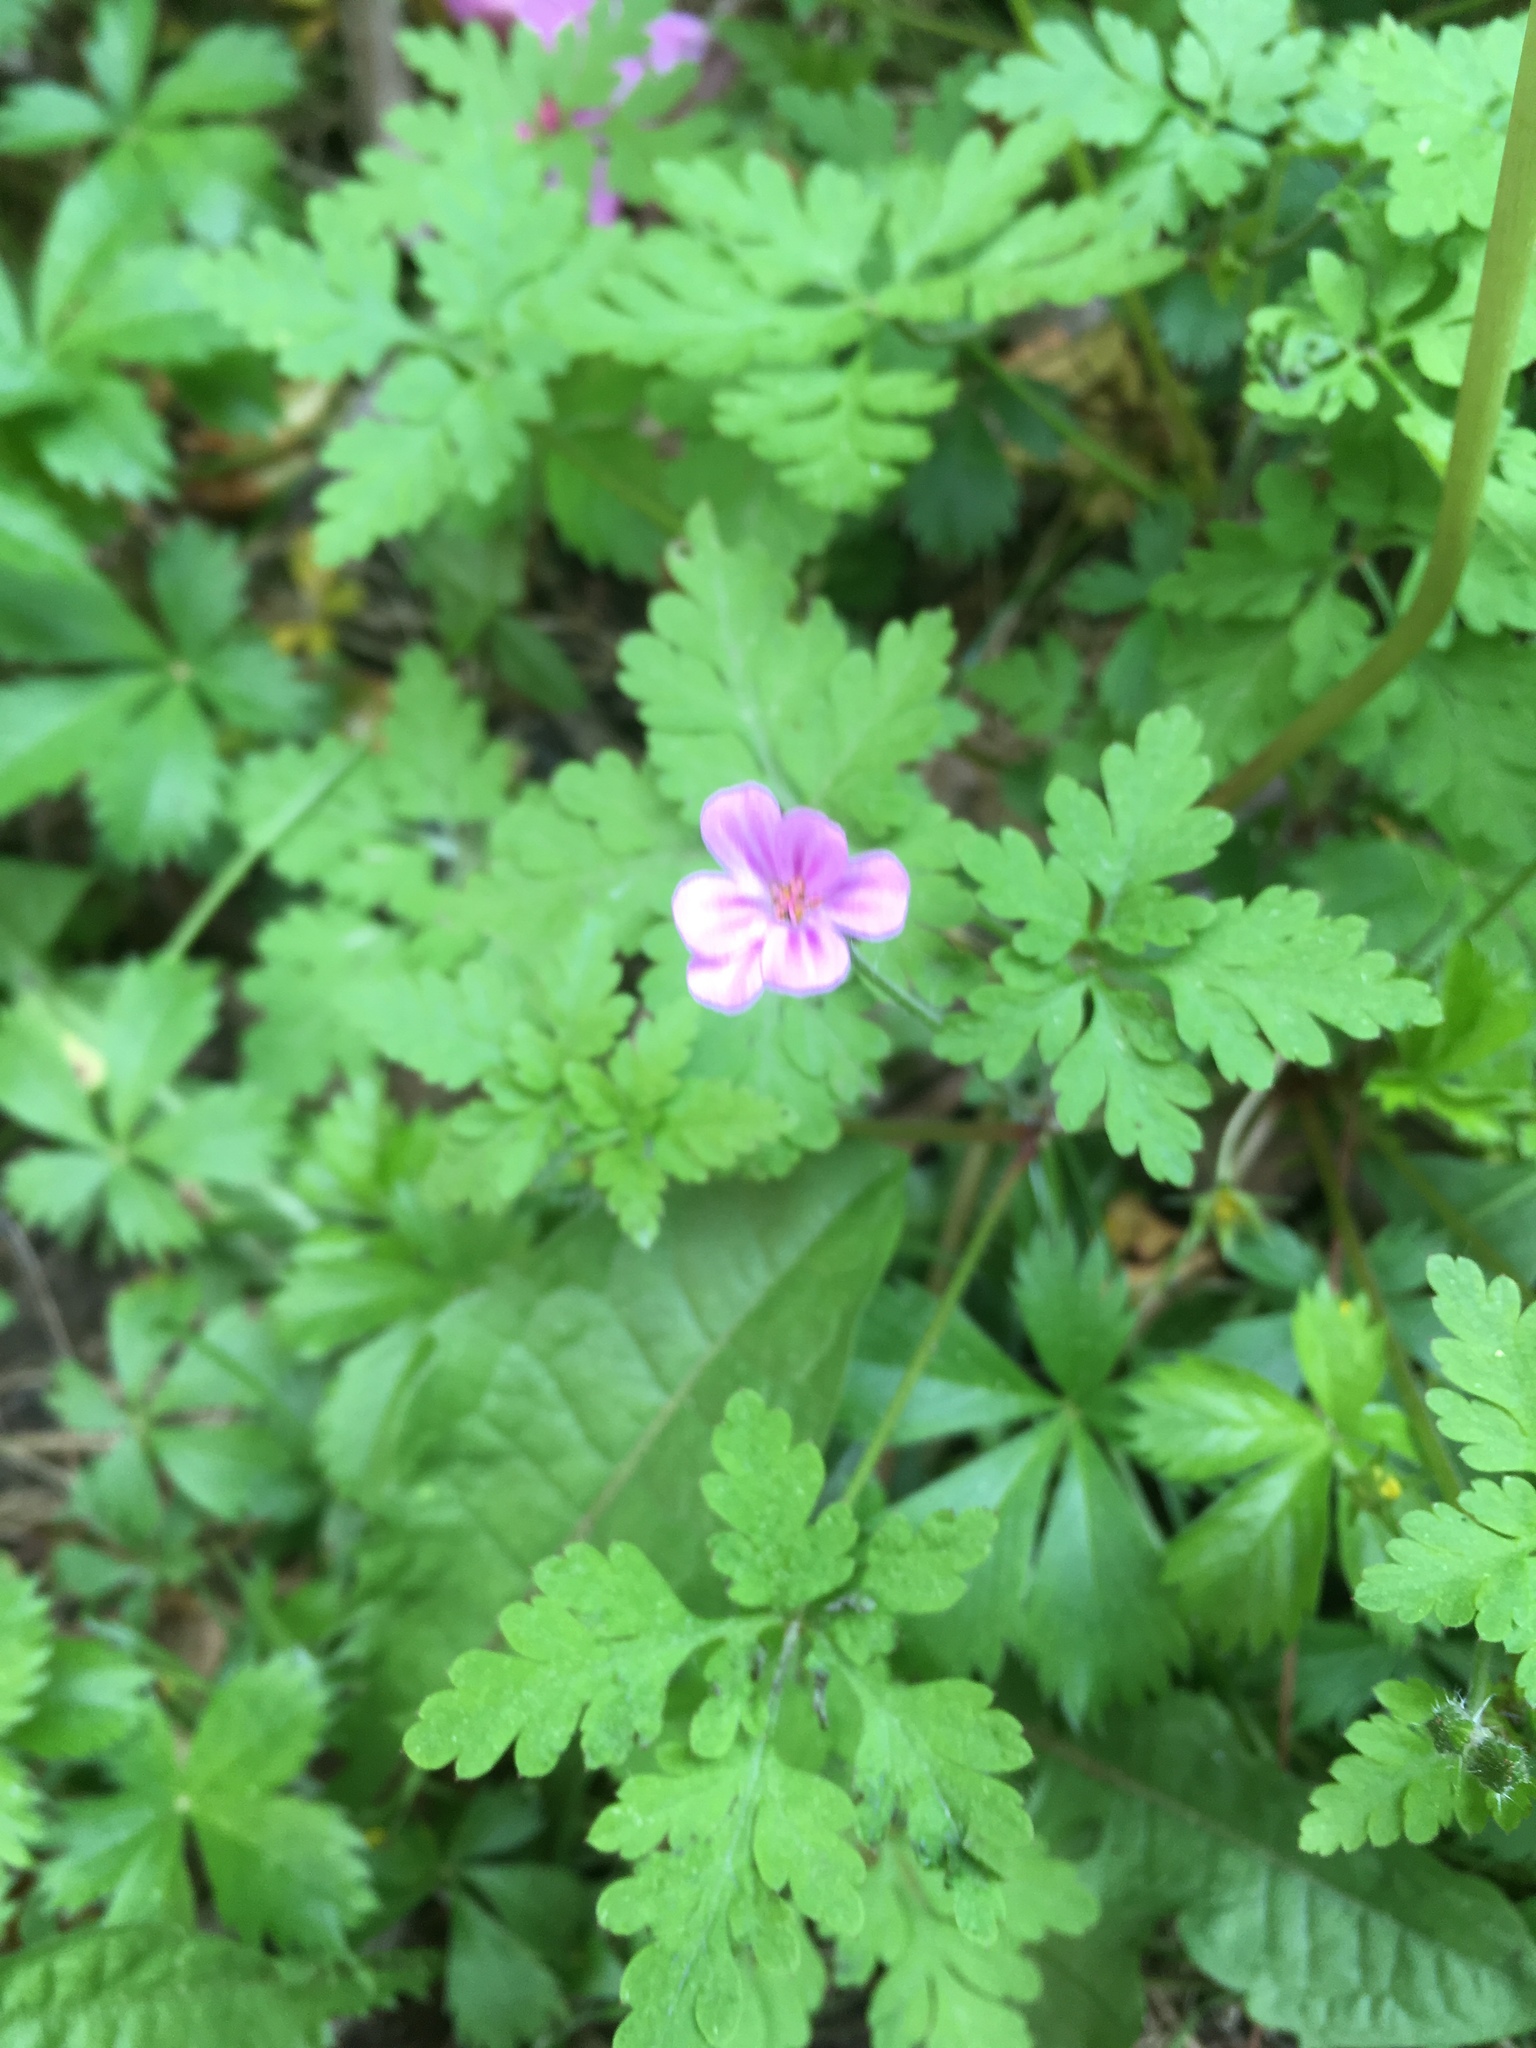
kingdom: Plantae
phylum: Tracheophyta
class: Magnoliopsida
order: Geraniales
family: Geraniaceae
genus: Geranium
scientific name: Geranium robertianum
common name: Herb-robert
